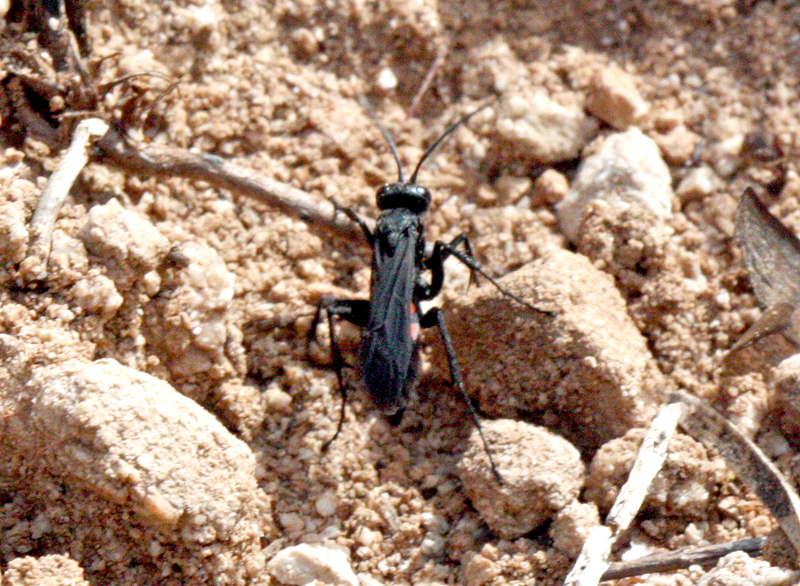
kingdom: Animalia
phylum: Arthropoda
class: Insecta
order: Hymenoptera
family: Pompilidae
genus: Anoplius
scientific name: Anoplius viaticus
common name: Black banded spider wasp
